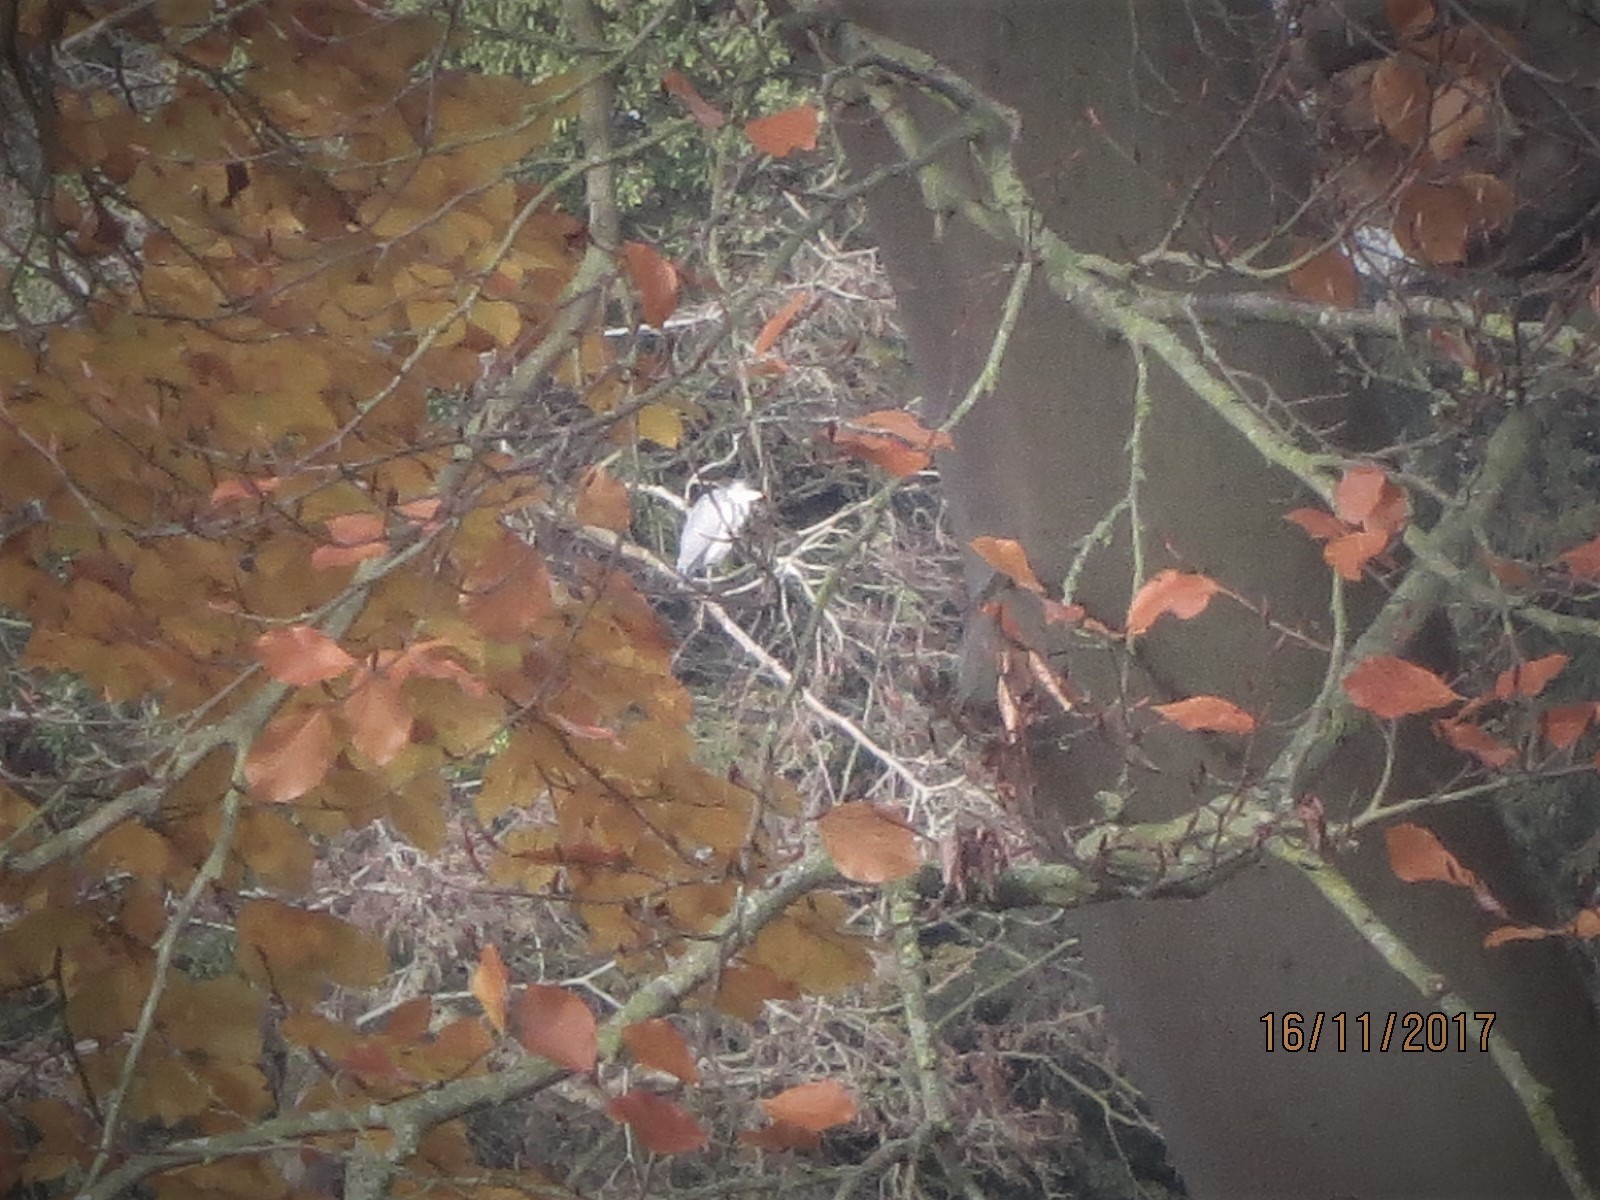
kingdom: Animalia
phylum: Chordata
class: Aves
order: Pelecaniformes
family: Ardeidae
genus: Ardea
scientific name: Ardea cinerea
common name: Grey heron
